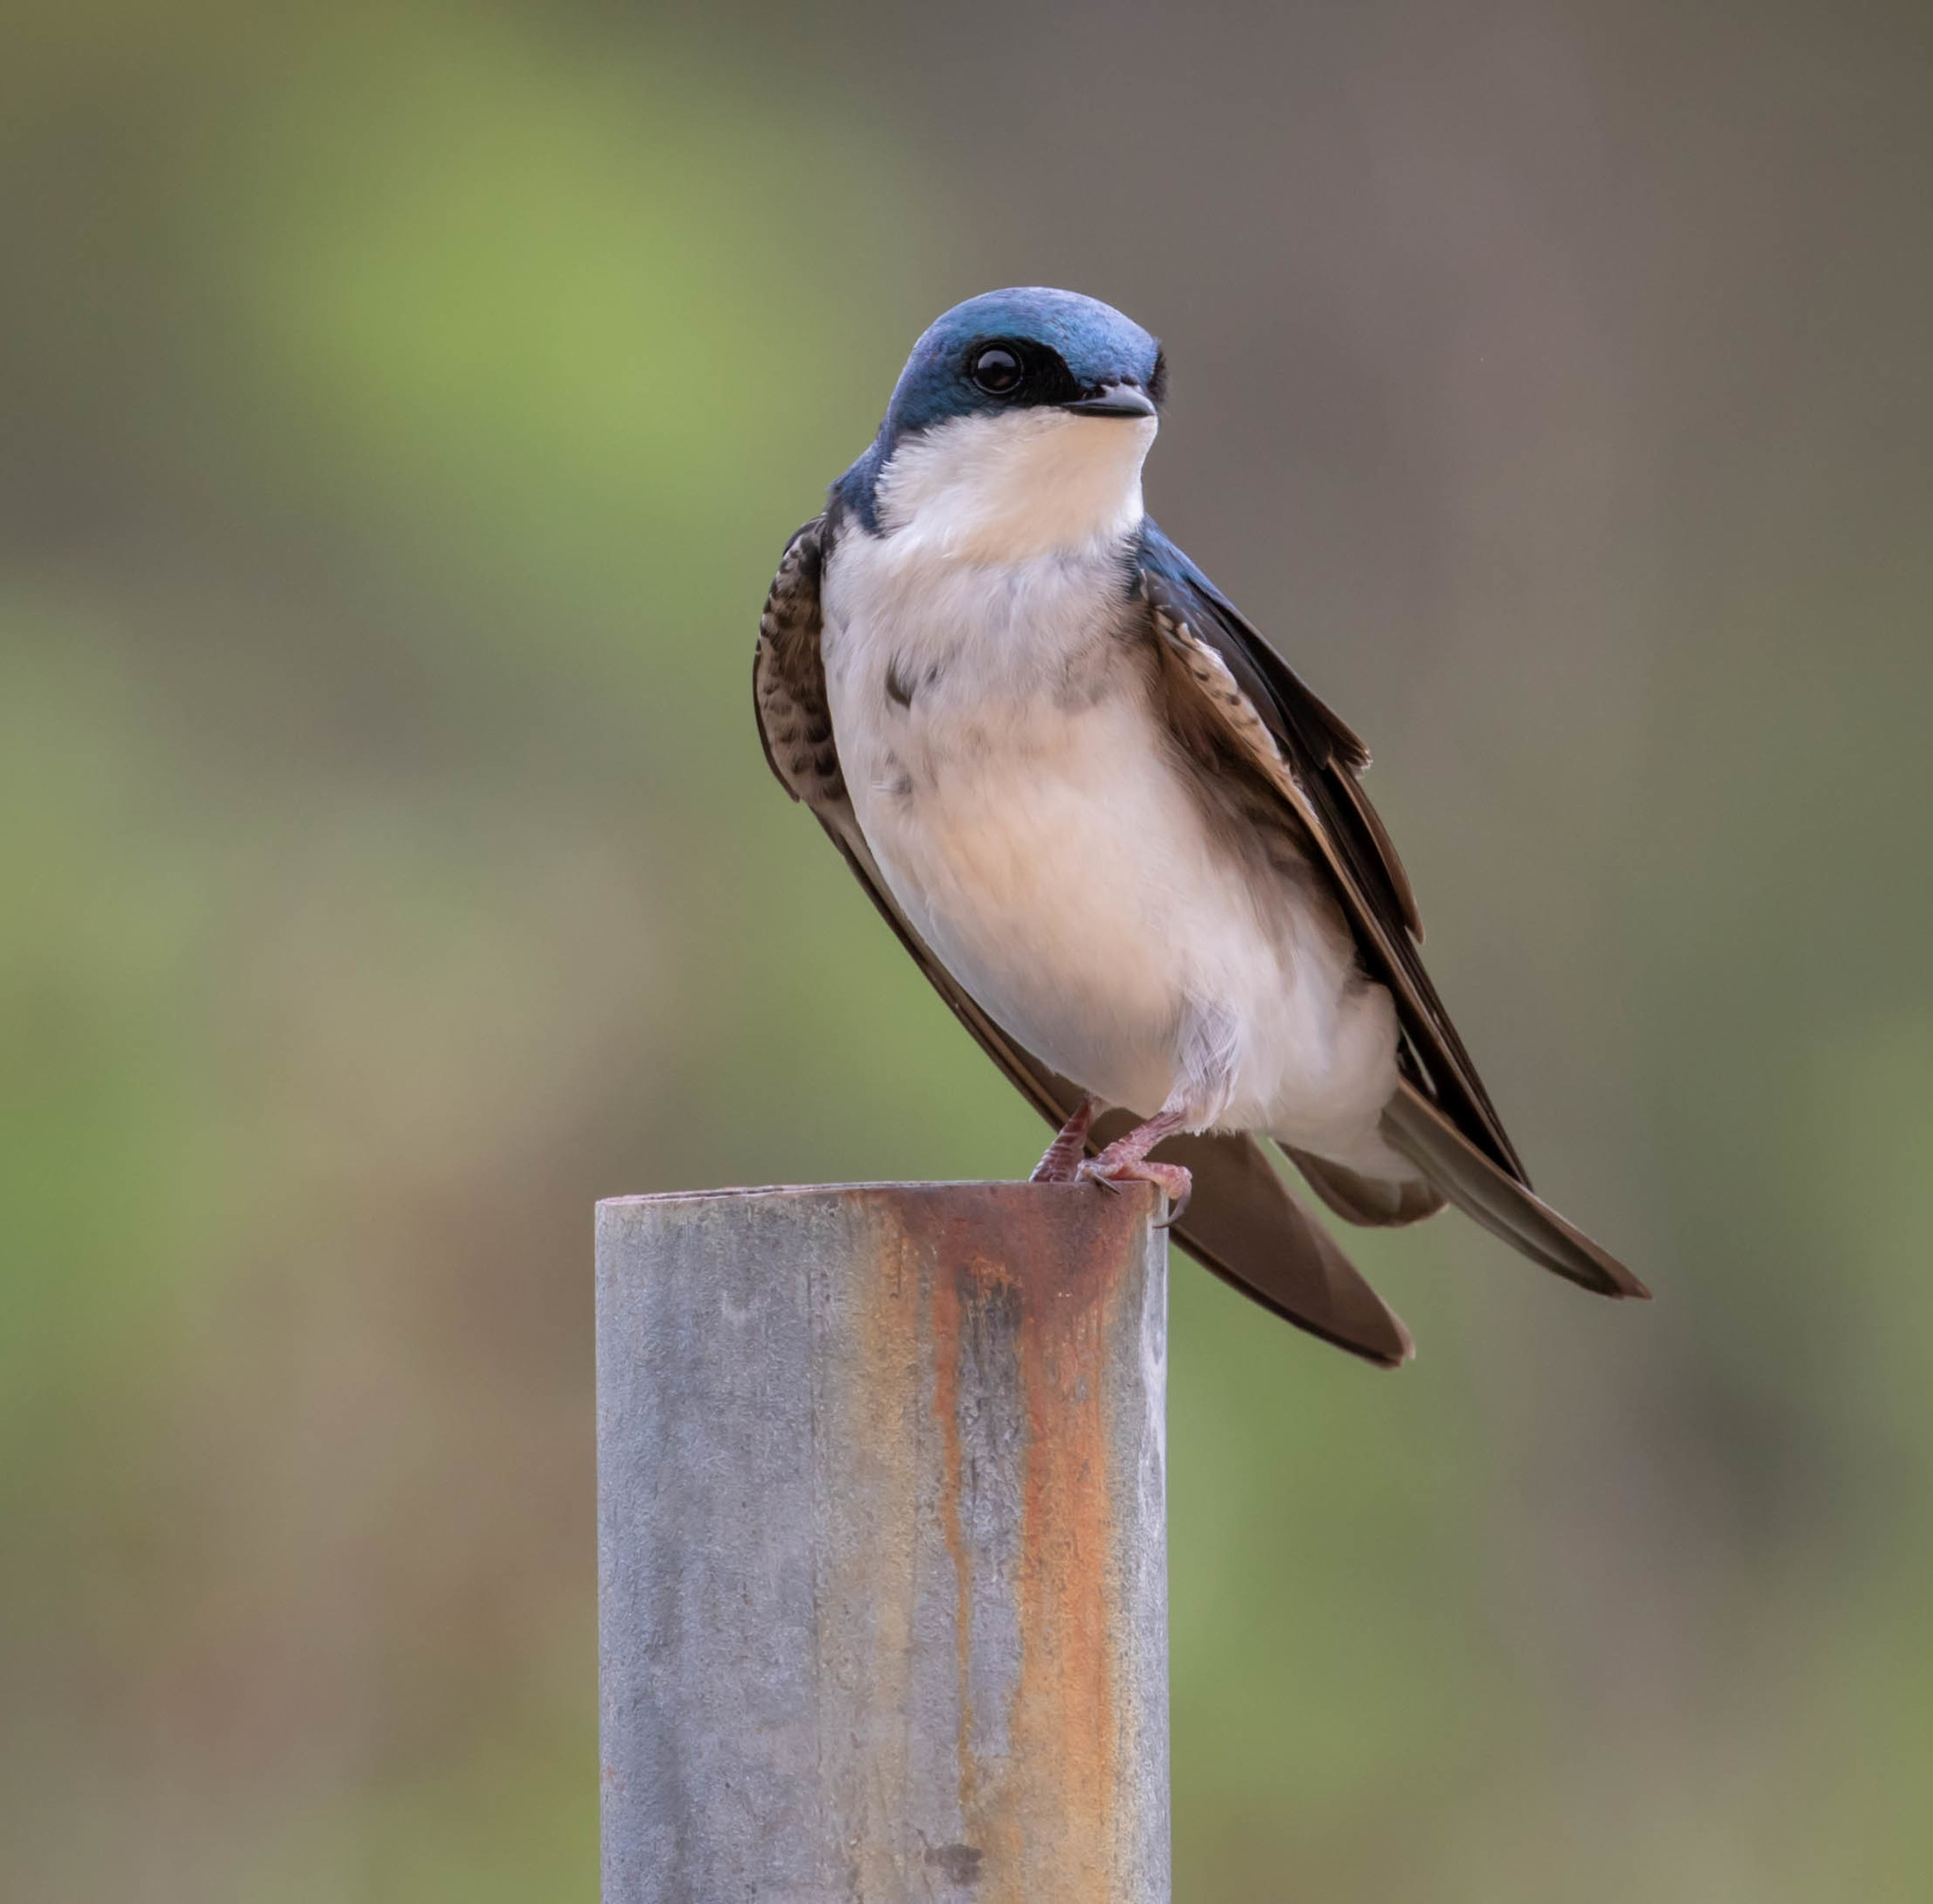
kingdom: Animalia
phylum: Chordata
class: Aves
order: Passeriformes
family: Hirundinidae
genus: Tachycineta
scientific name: Tachycineta bicolor
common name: Tree swallow
